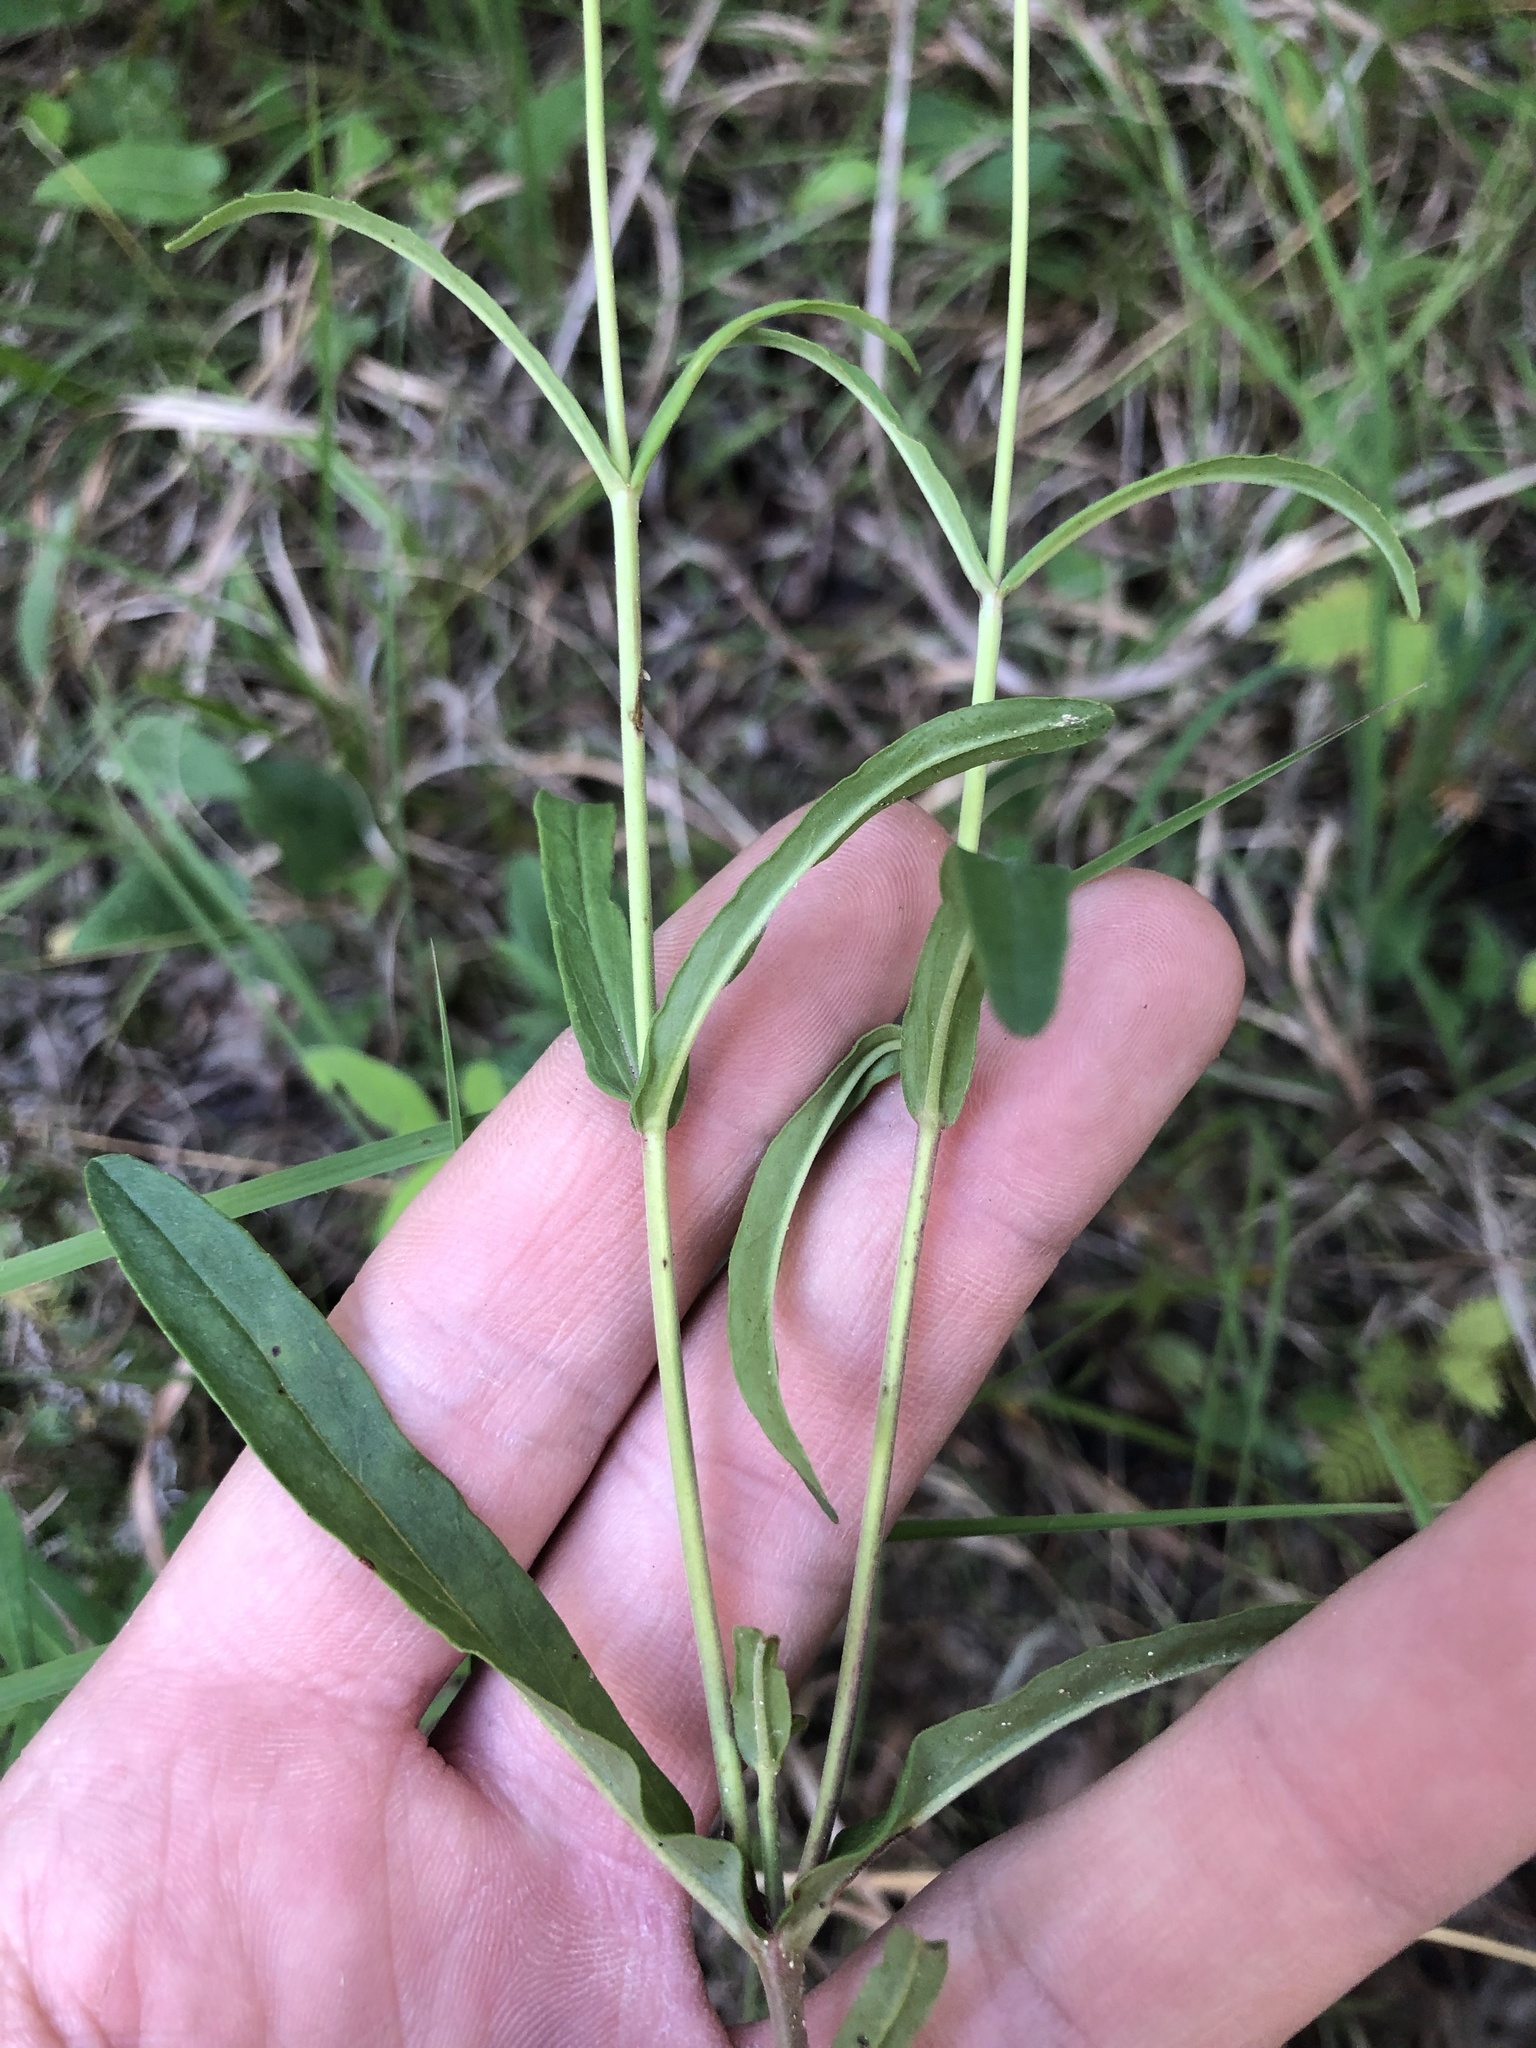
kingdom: Plantae
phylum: Tracheophyta
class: Magnoliopsida
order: Lamiales
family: Plantaginaceae
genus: Penstemon
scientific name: Penstemon laxiflorus
